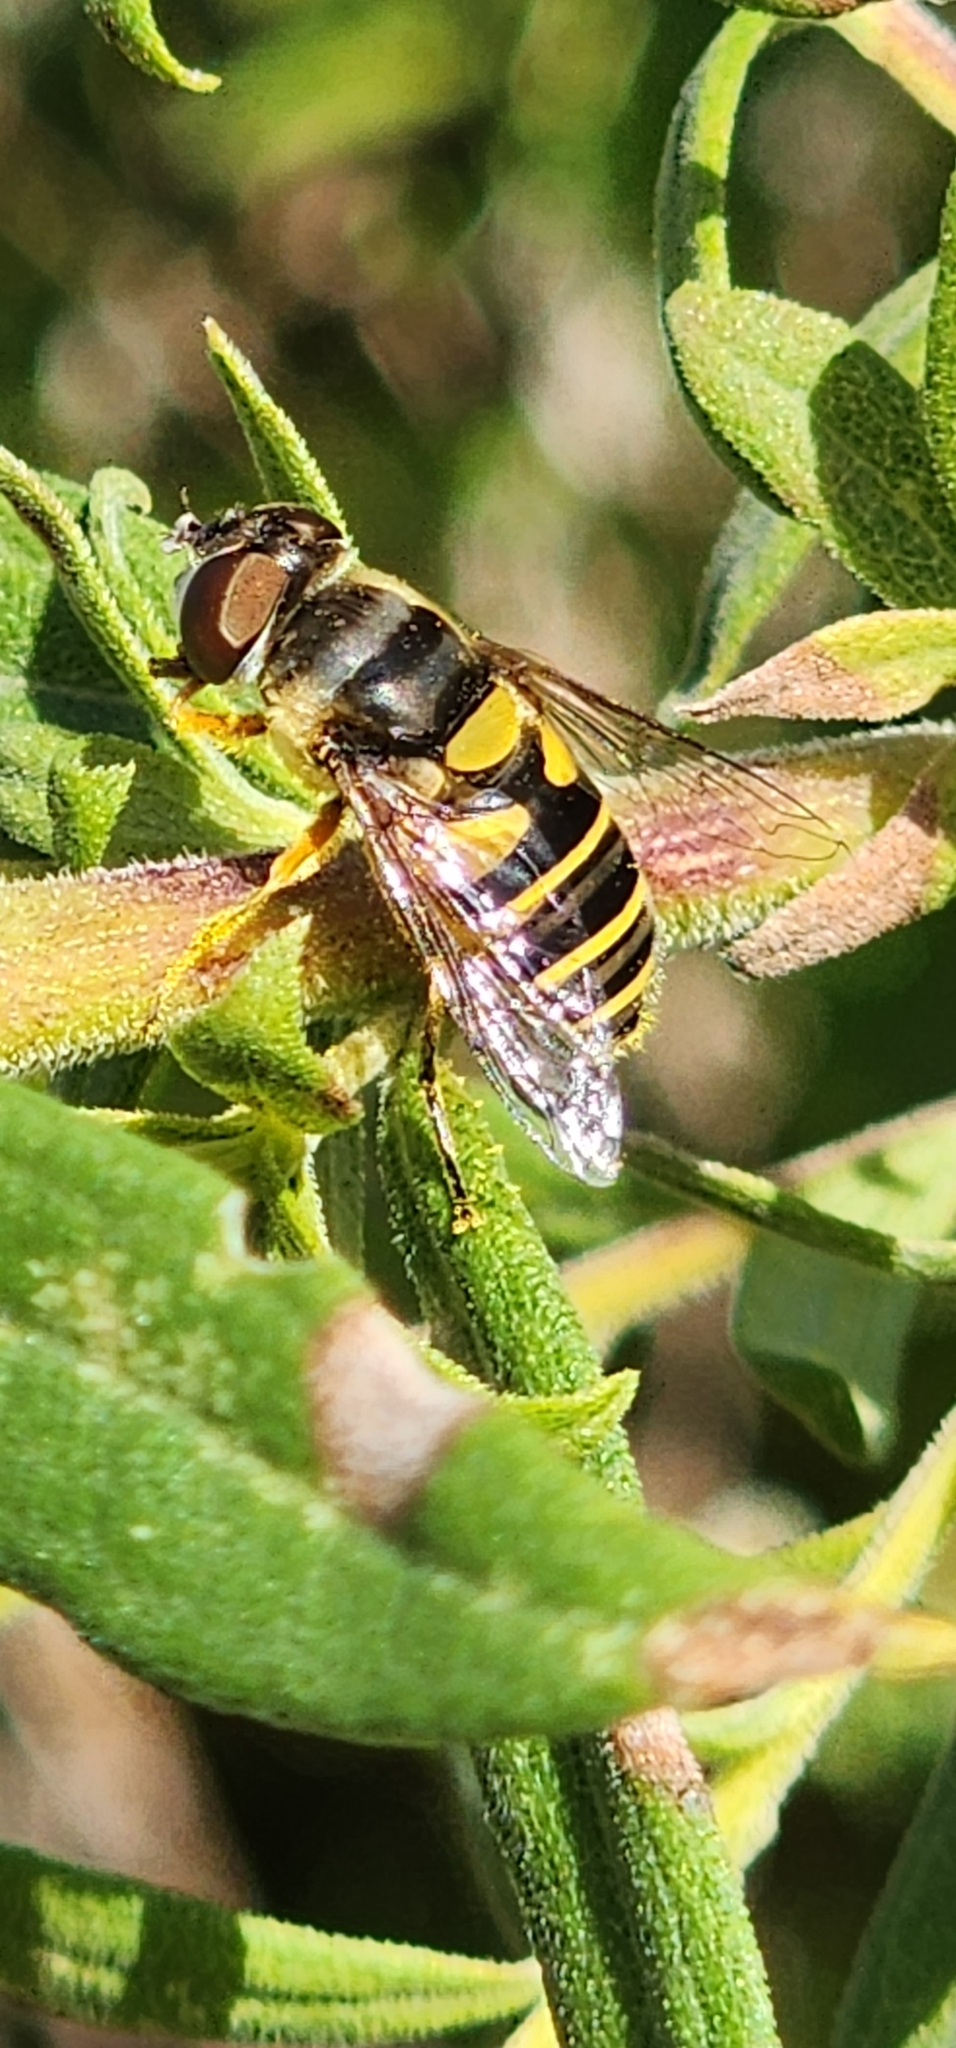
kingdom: Animalia
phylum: Arthropoda
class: Insecta
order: Diptera
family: Syrphidae
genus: Eristalis
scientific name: Eristalis transversa
